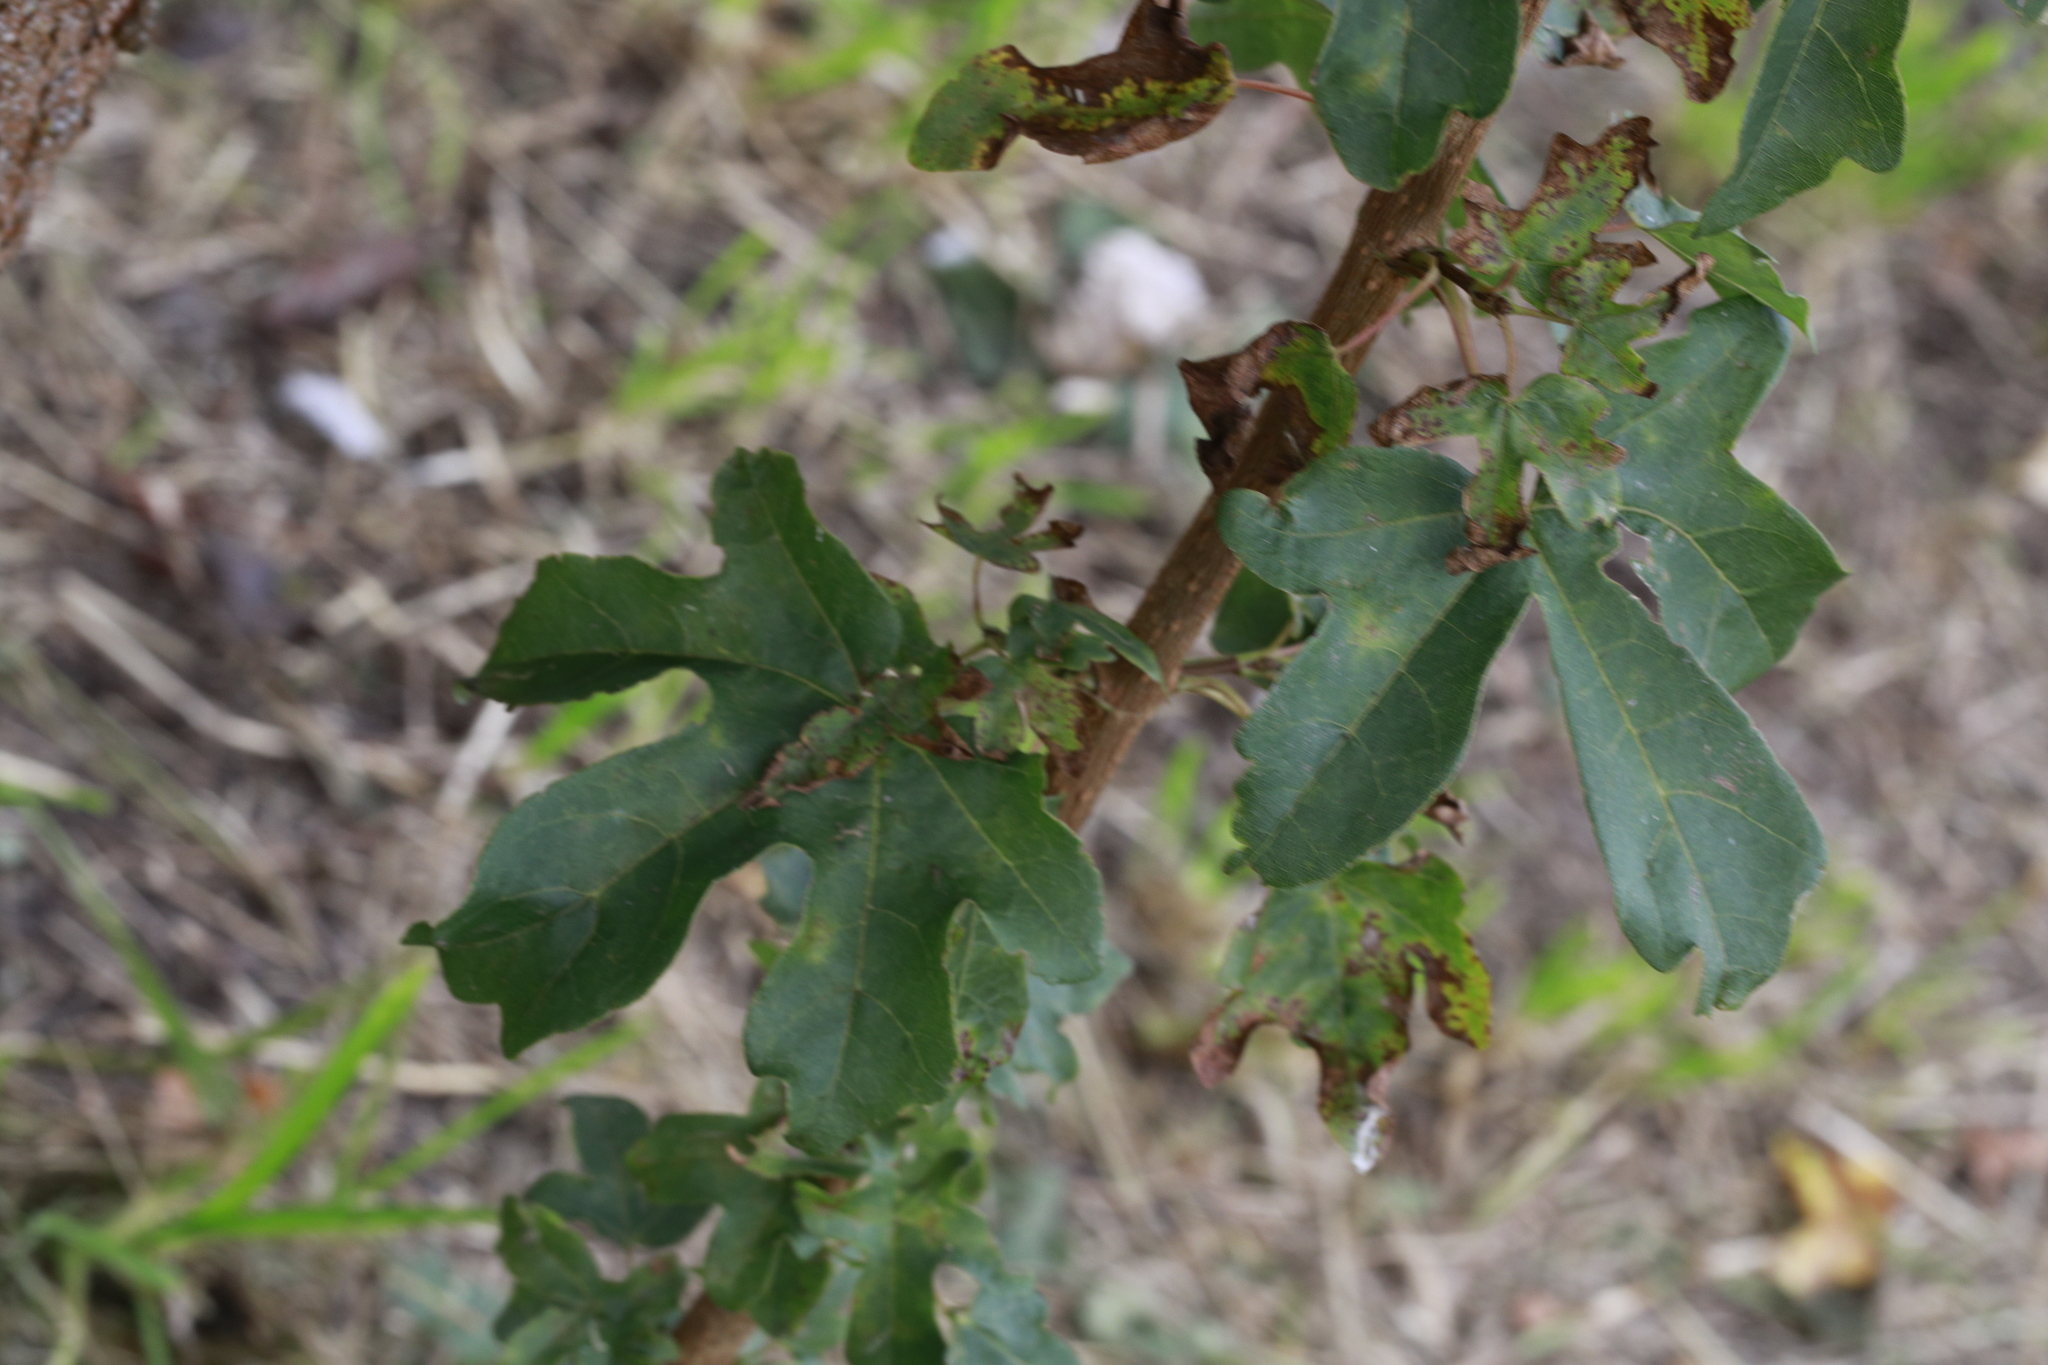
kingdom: Plantae
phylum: Tracheophyta
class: Magnoliopsida
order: Sapindales
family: Sapindaceae
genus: Acer
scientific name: Acer campestre
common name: Field maple
